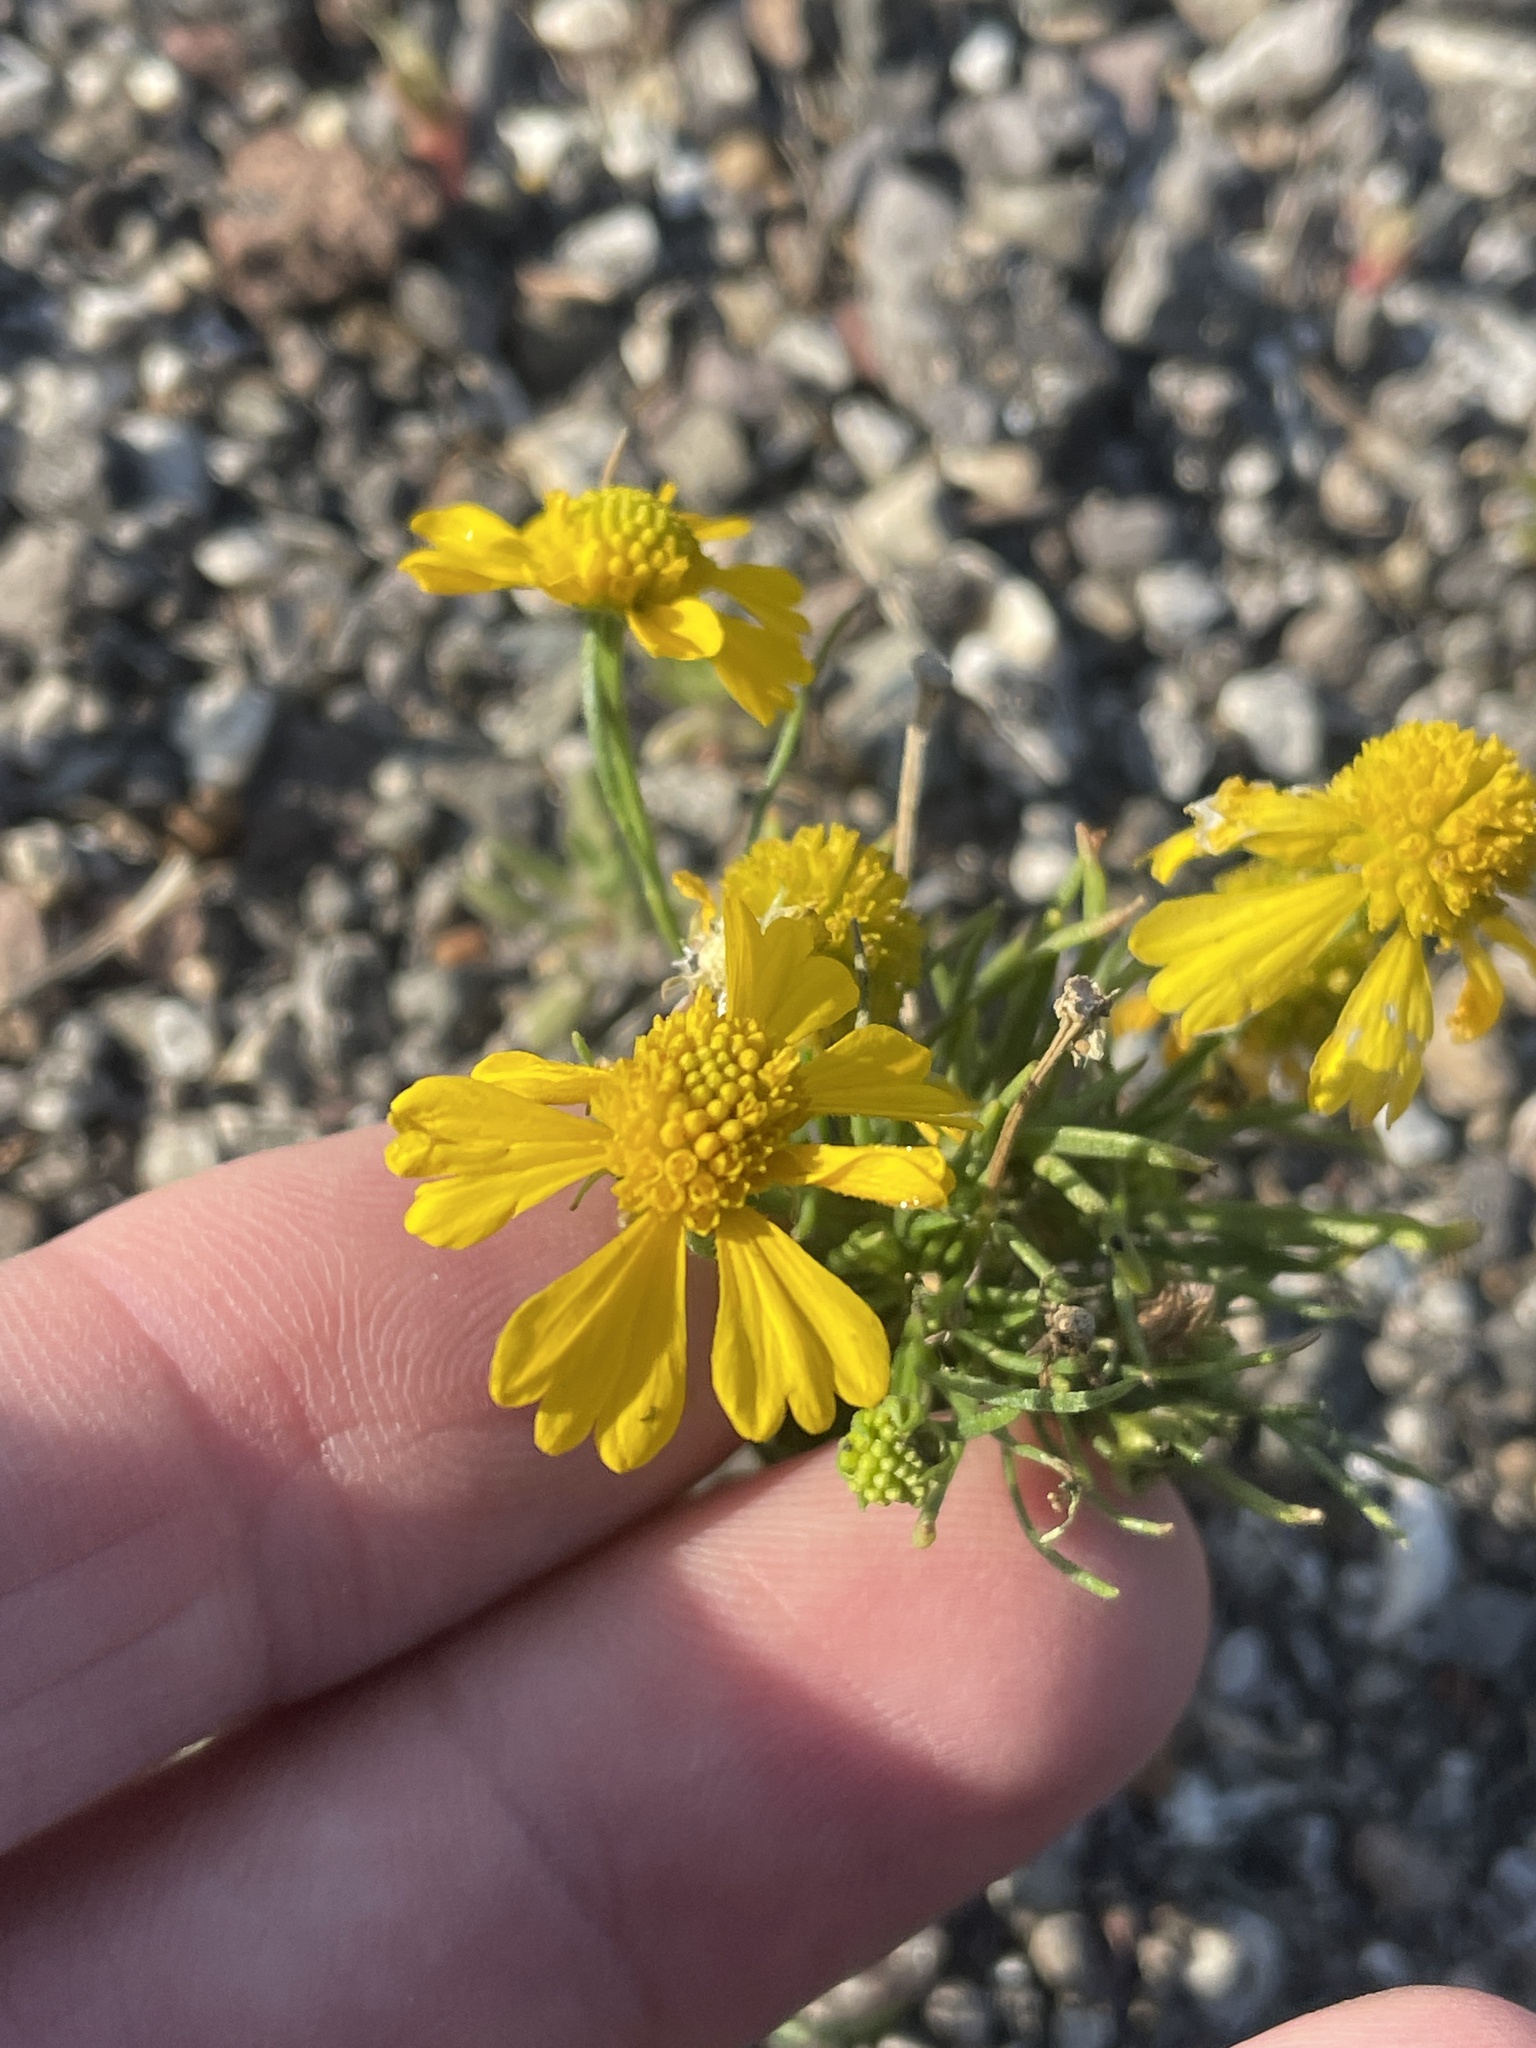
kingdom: Plantae
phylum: Tracheophyta
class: Magnoliopsida
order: Asterales
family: Asteraceae
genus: Helenium
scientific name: Helenium amarum
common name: Bitter sneezeweed
